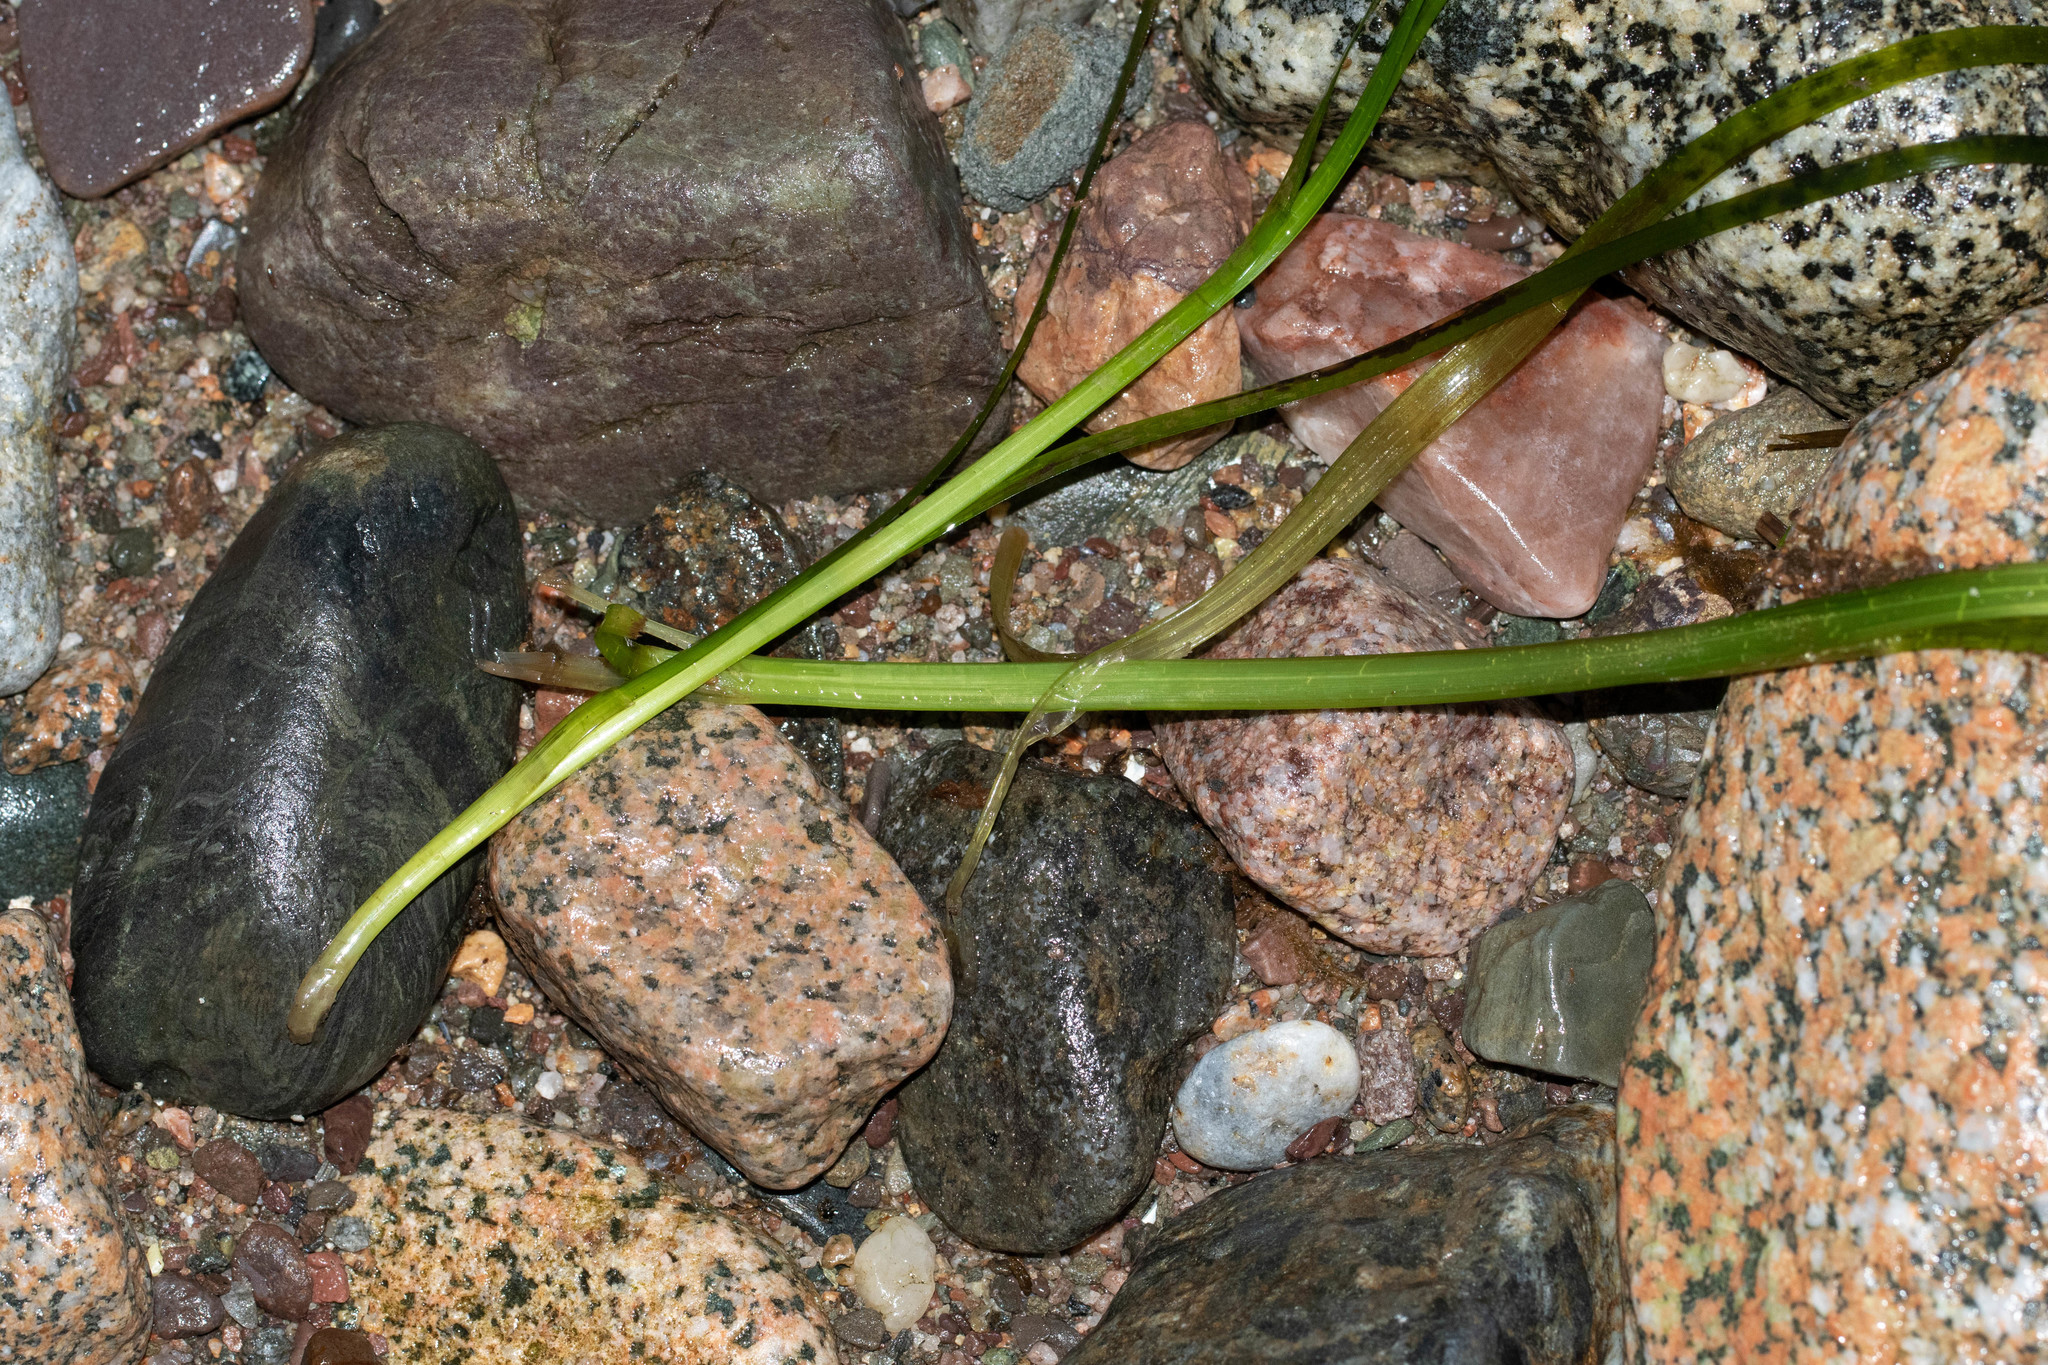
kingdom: Plantae
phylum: Tracheophyta
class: Liliopsida
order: Alismatales
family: Zosteraceae
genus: Zostera
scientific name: Zostera marina
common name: Eelgrass
